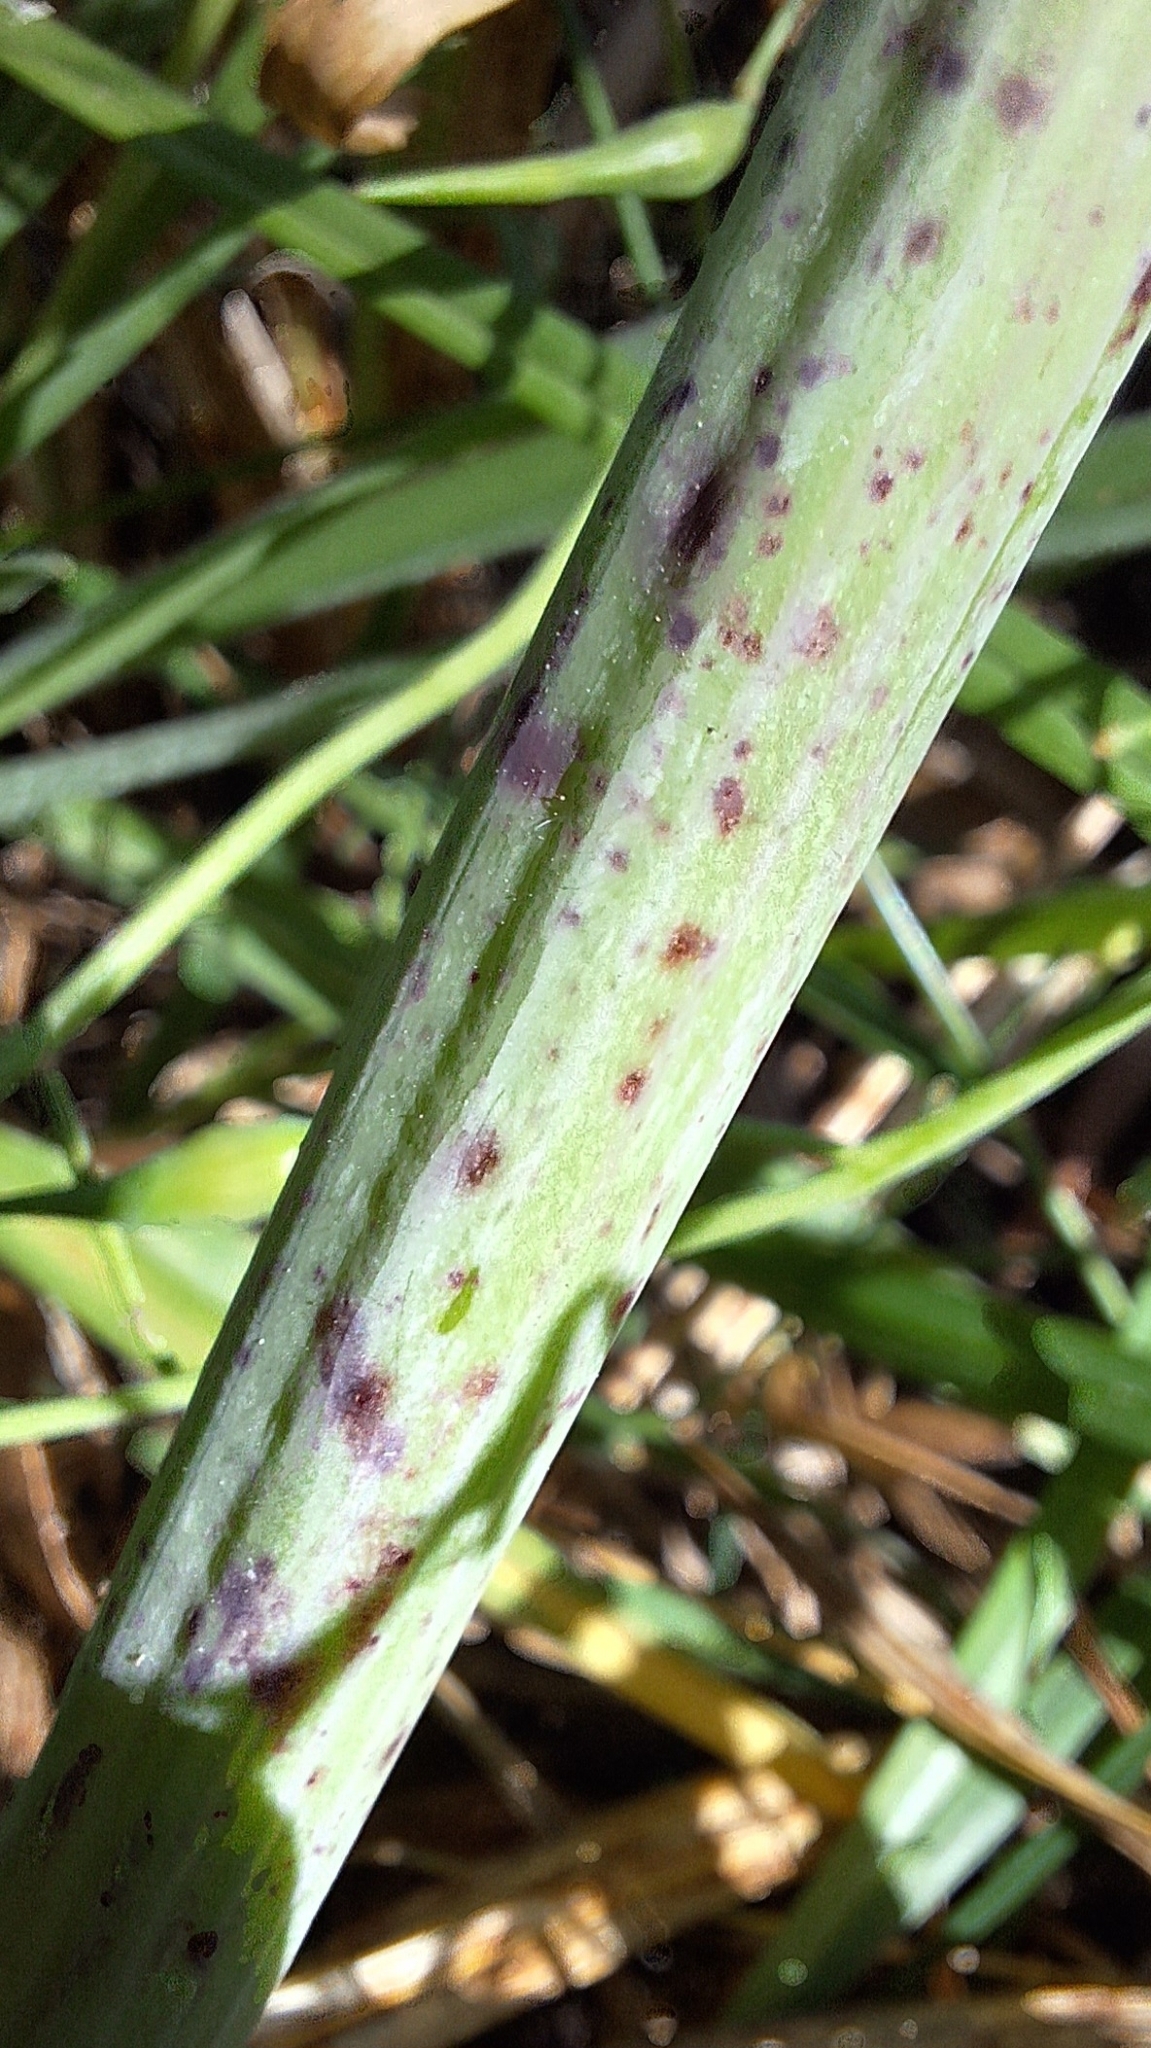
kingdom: Plantae
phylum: Tracheophyta
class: Magnoliopsida
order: Apiales
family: Apiaceae
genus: Conium
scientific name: Conium maculatum
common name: Hemlock
